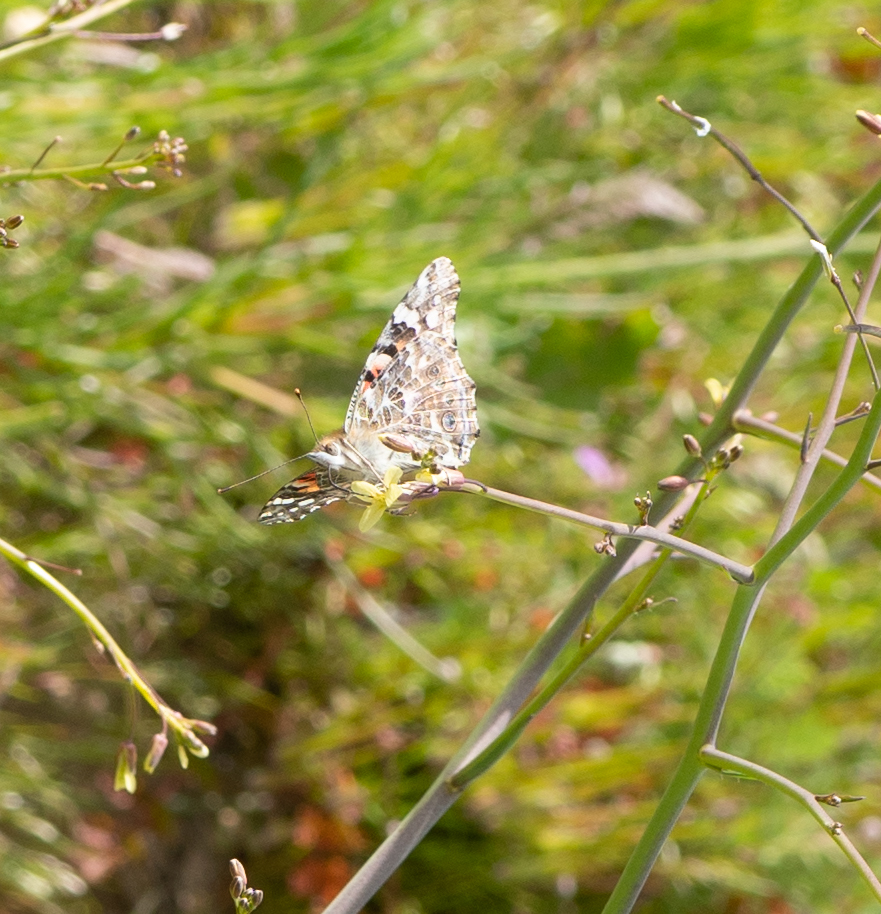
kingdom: Animalia
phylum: Arthropoda
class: Insecta
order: Lepidoptera
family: Nymphalidae
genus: Vanessa
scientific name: Vanessa cardui
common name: Painted lady
